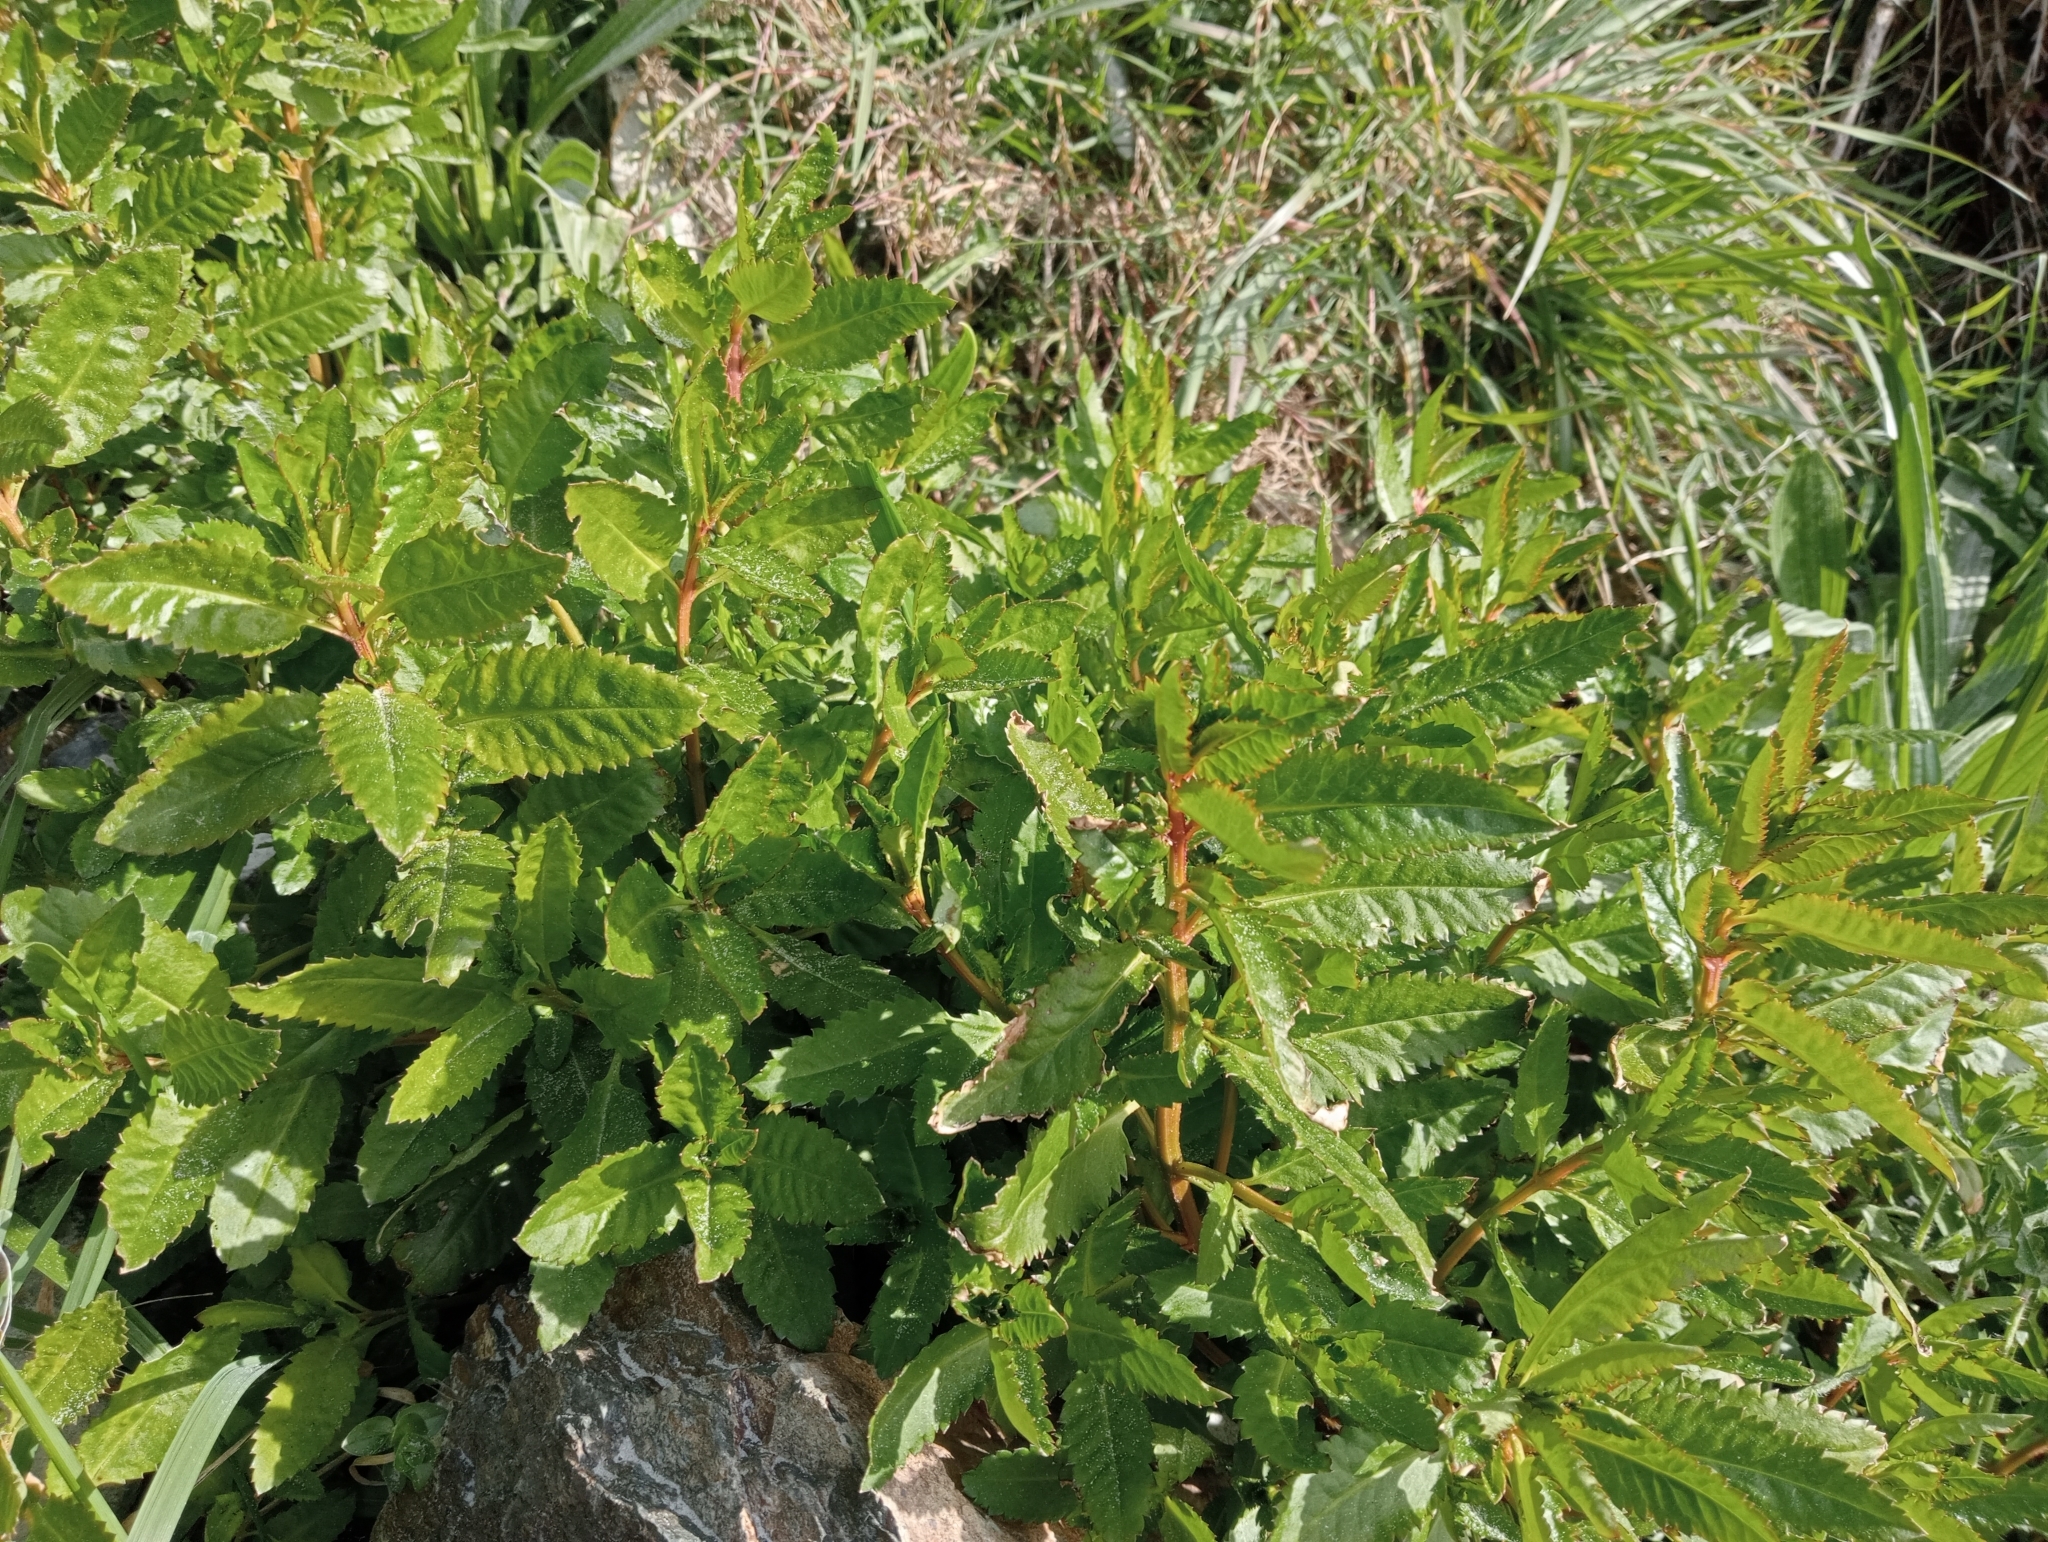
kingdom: Plantae
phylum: Tracheophyta
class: Magnoliopsida
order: Saxifragales
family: Haloragaceae
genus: Haloragis
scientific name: Haloragis erecta
